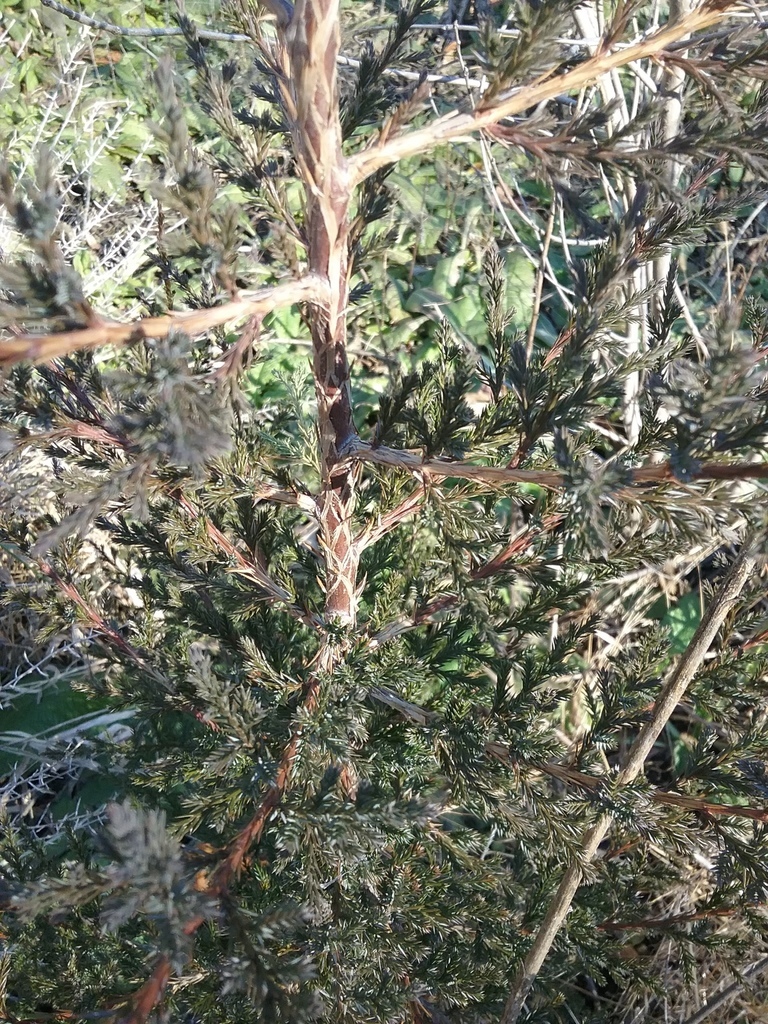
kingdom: Plantae
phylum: Tracheophyta
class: Pinopsida
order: Pinales
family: Cupressaceae
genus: Juniperus
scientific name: Juniperus virginiana
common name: Red juniper
